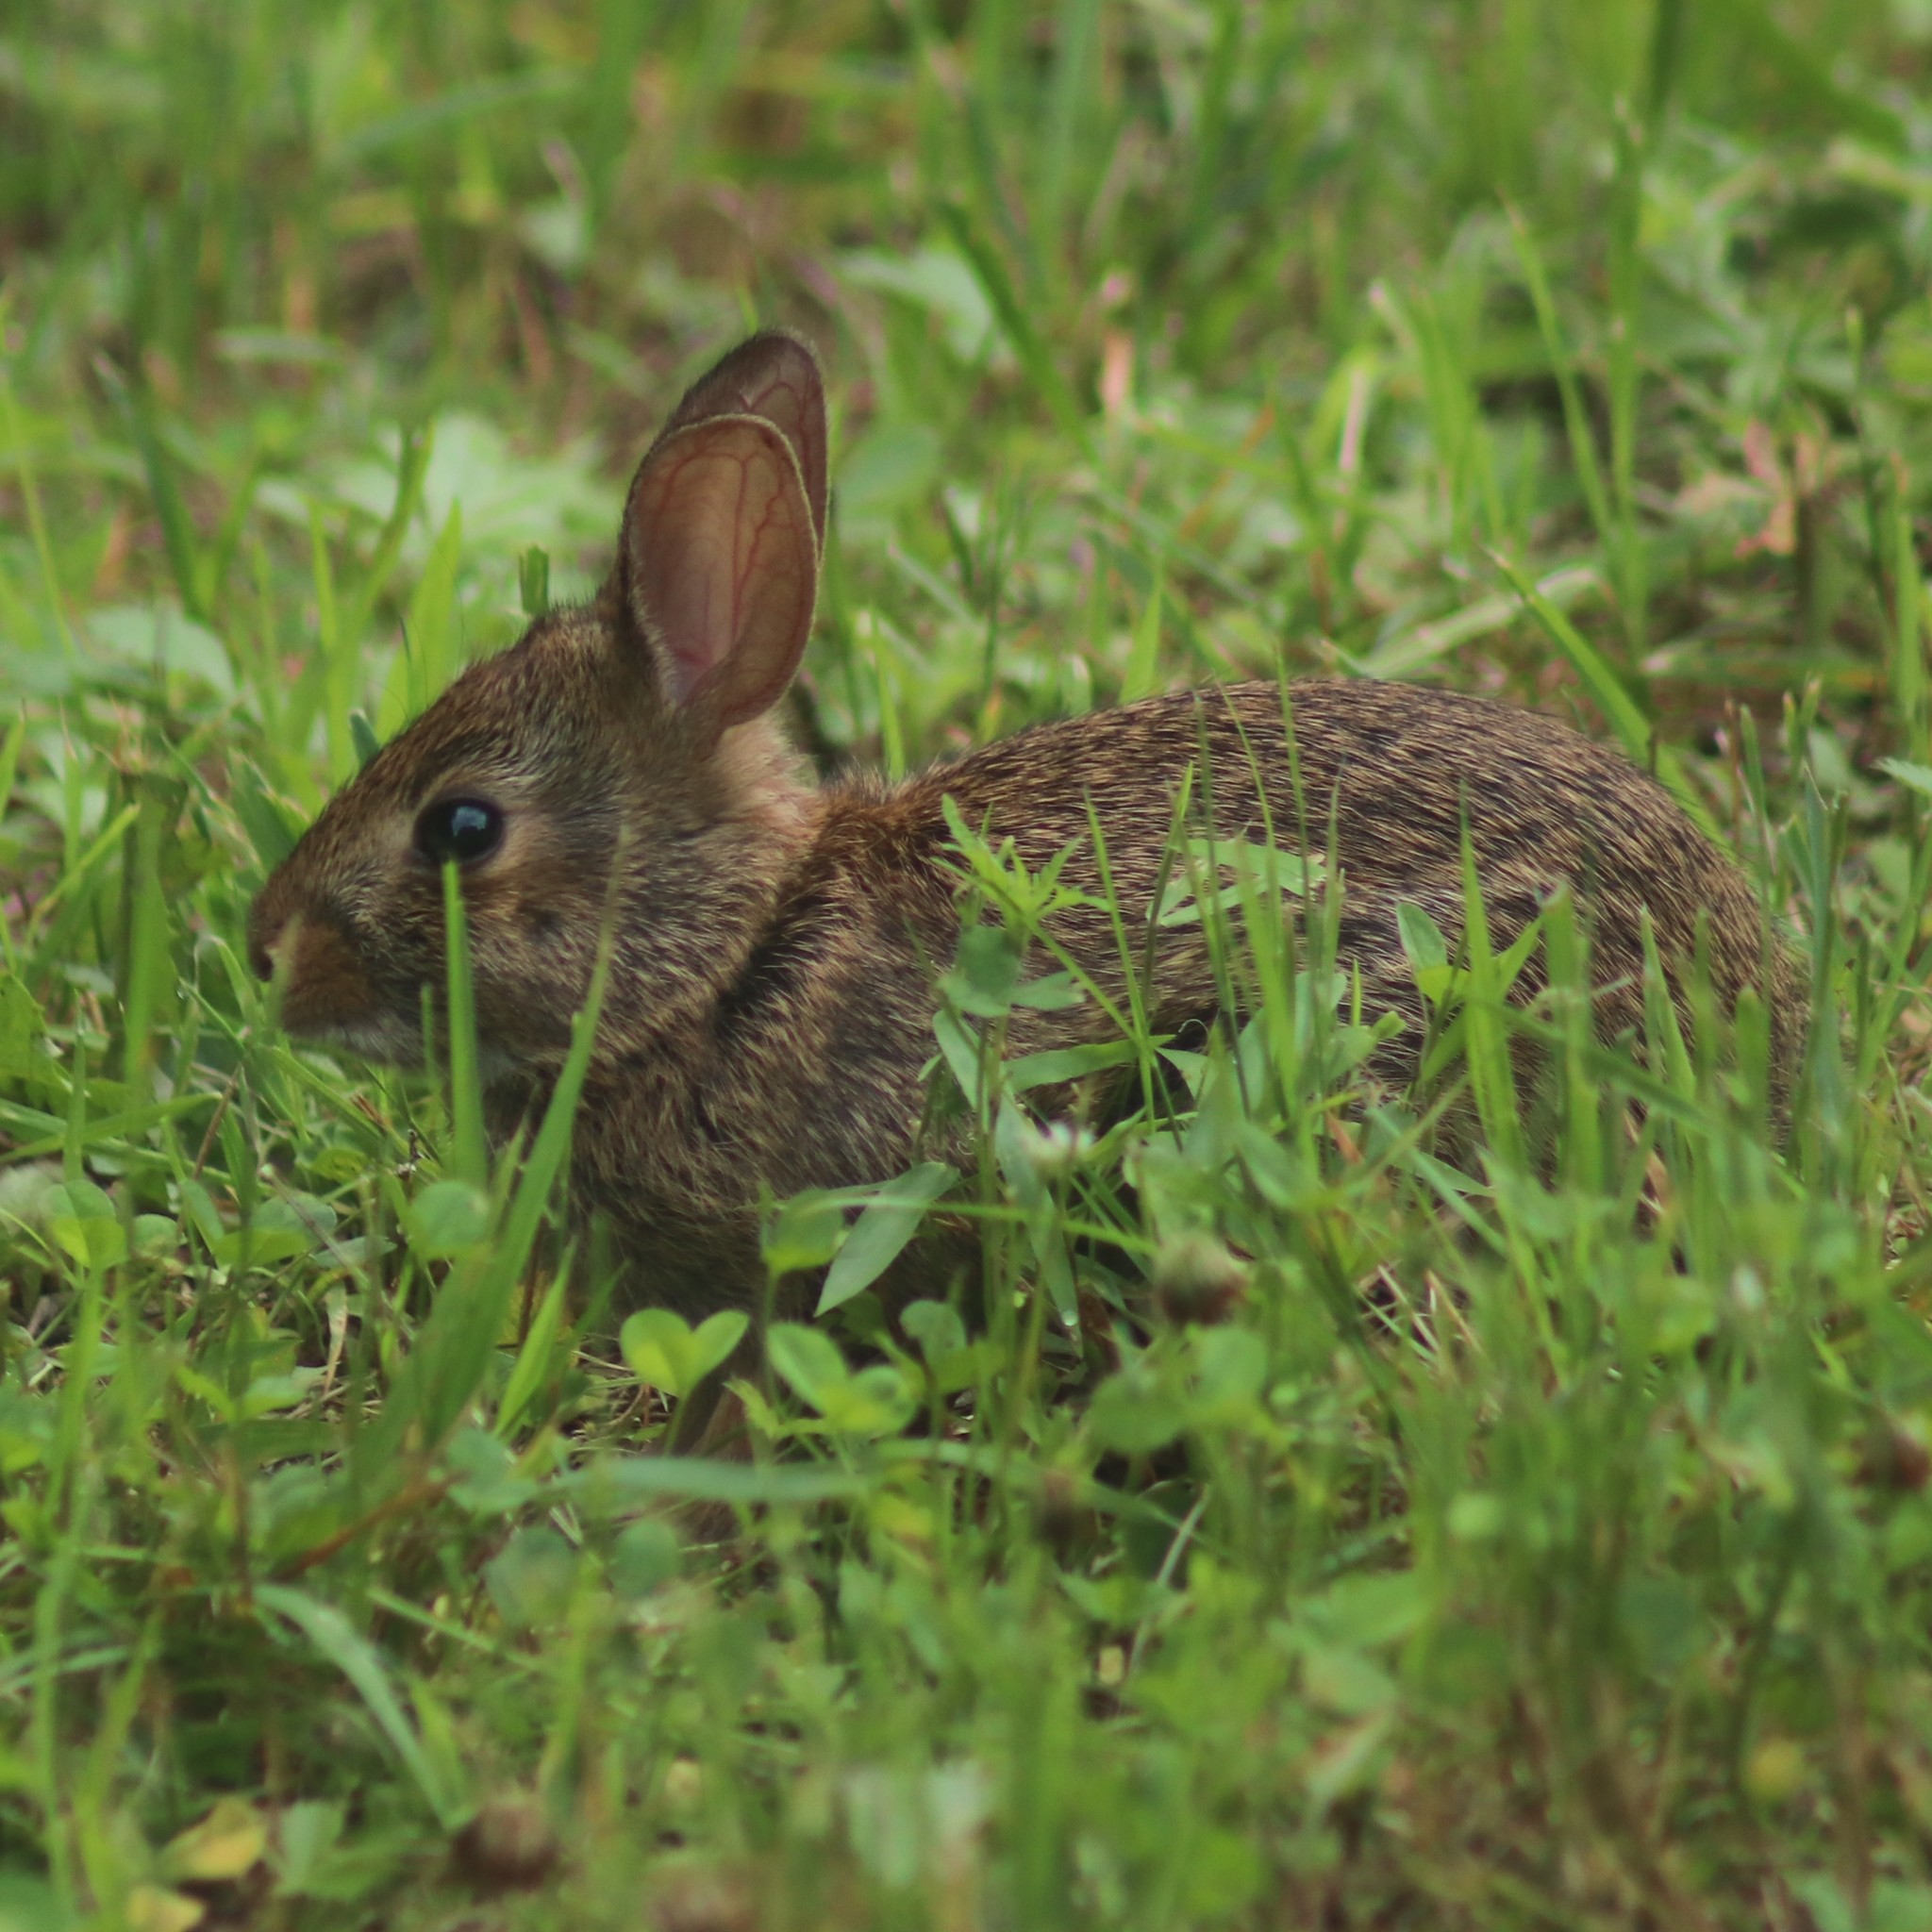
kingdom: Animalia
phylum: Chordata
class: Mammalia
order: Lagomorpha
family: Leporidae
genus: Sylvilagus
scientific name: Sylvilagus floridanus
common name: Eastern cottontail
